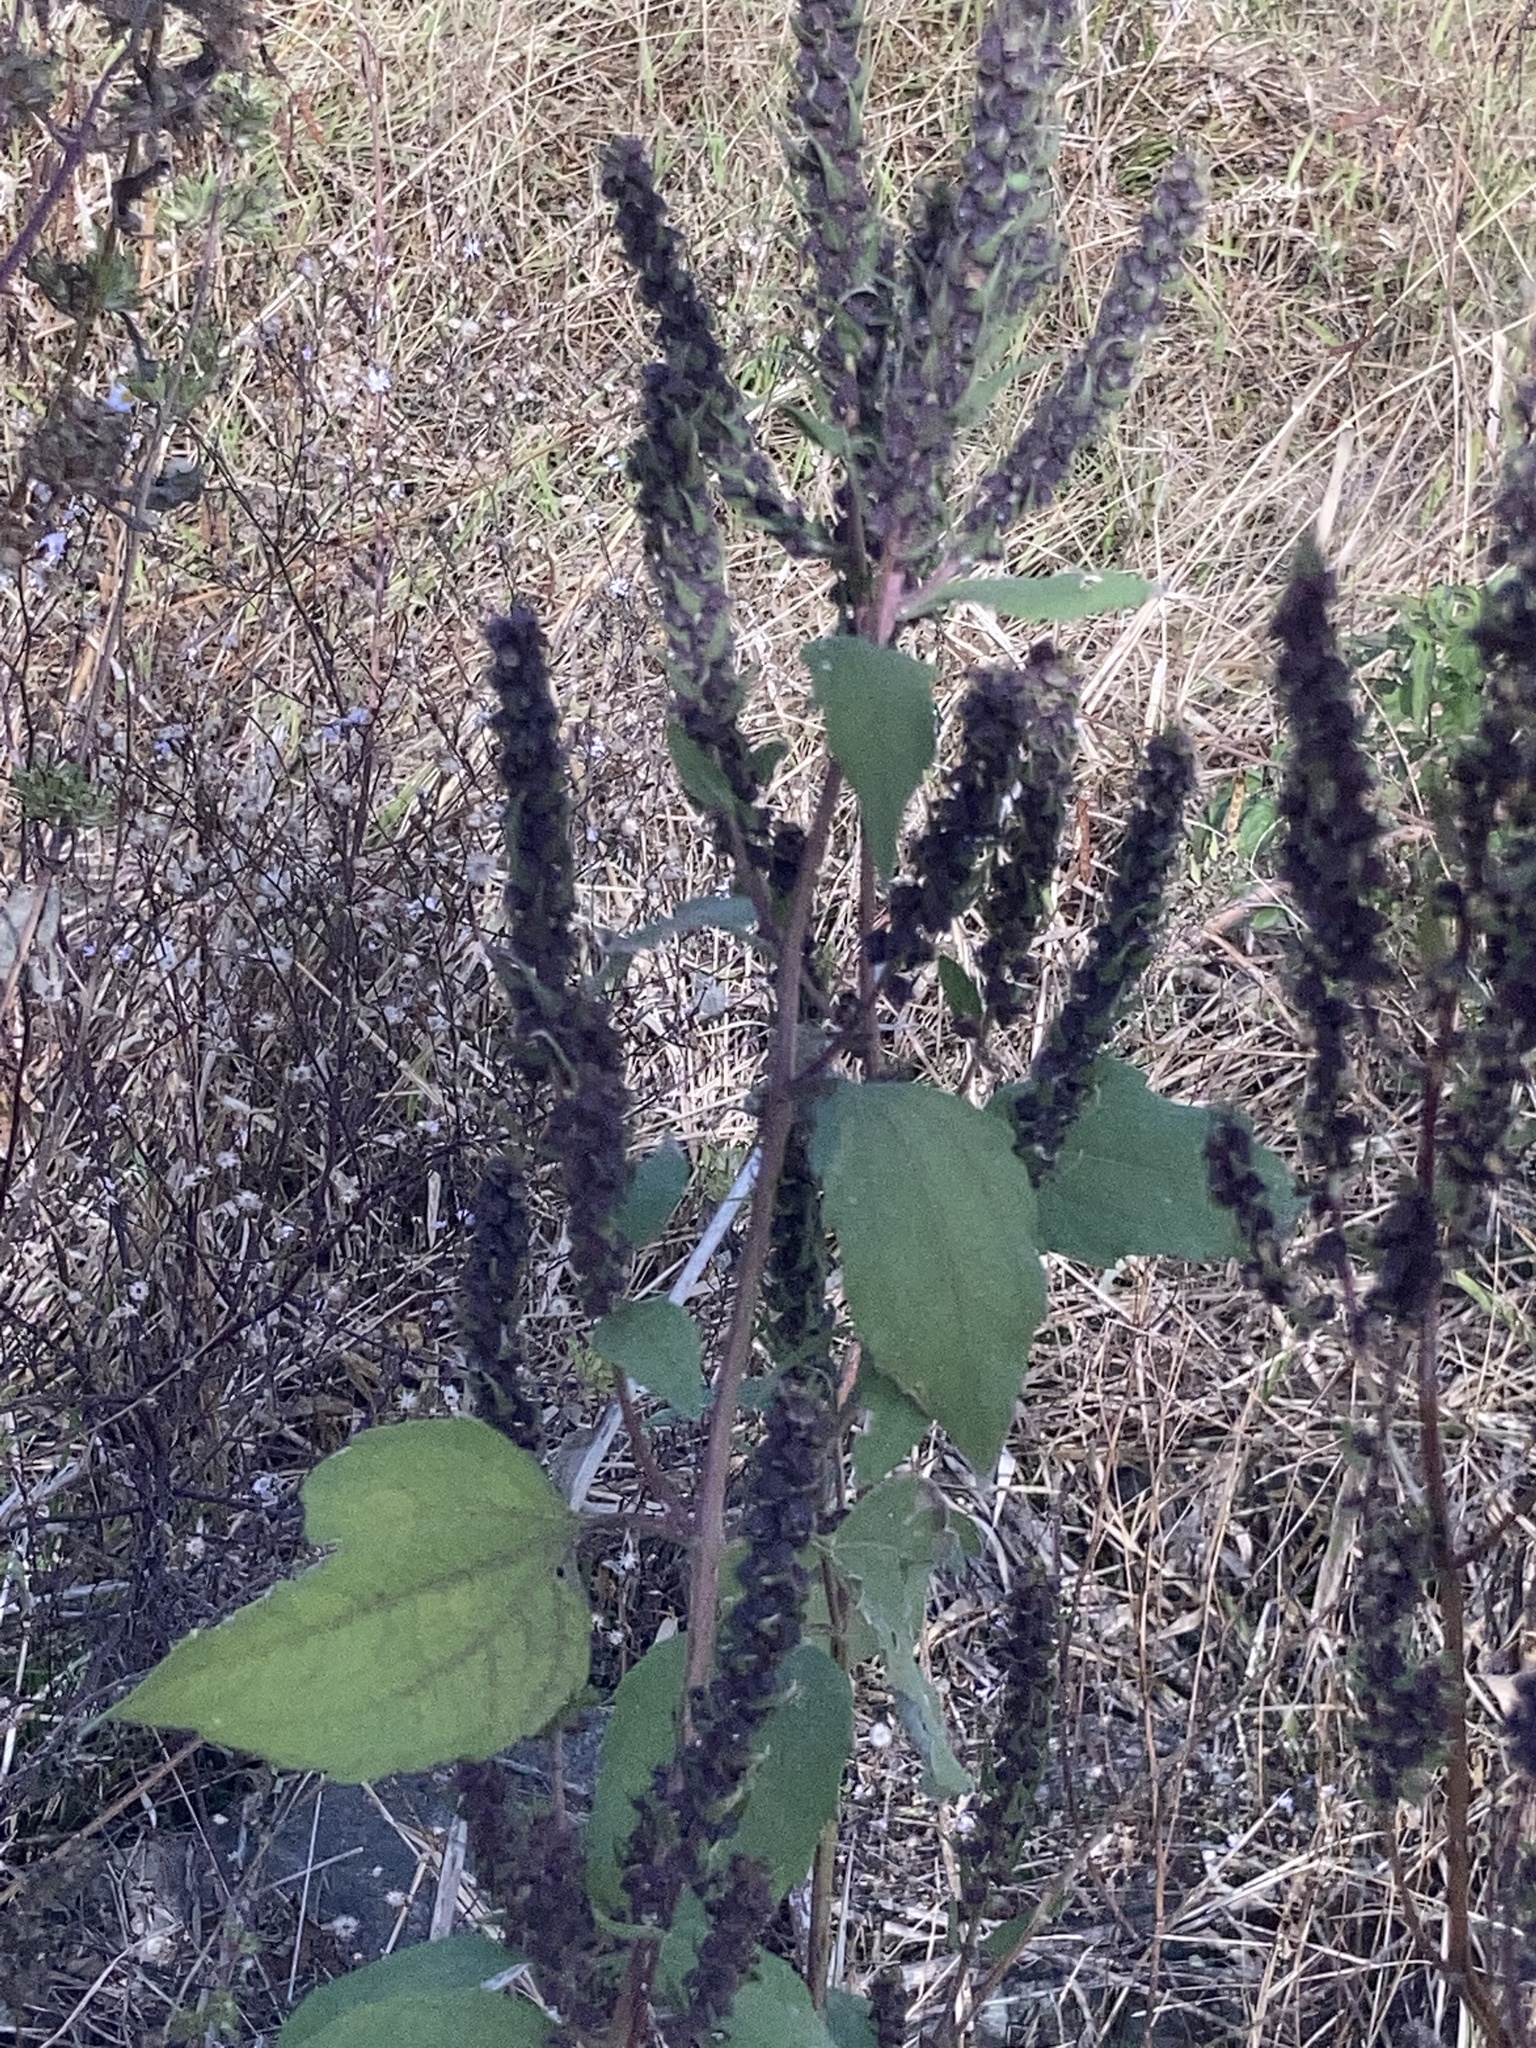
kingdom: Plantae
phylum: Tracheophyta
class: Magnoliopsida
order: Asterales
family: Asteraceae
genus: Iva
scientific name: Iva annua
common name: Marsh-elder
